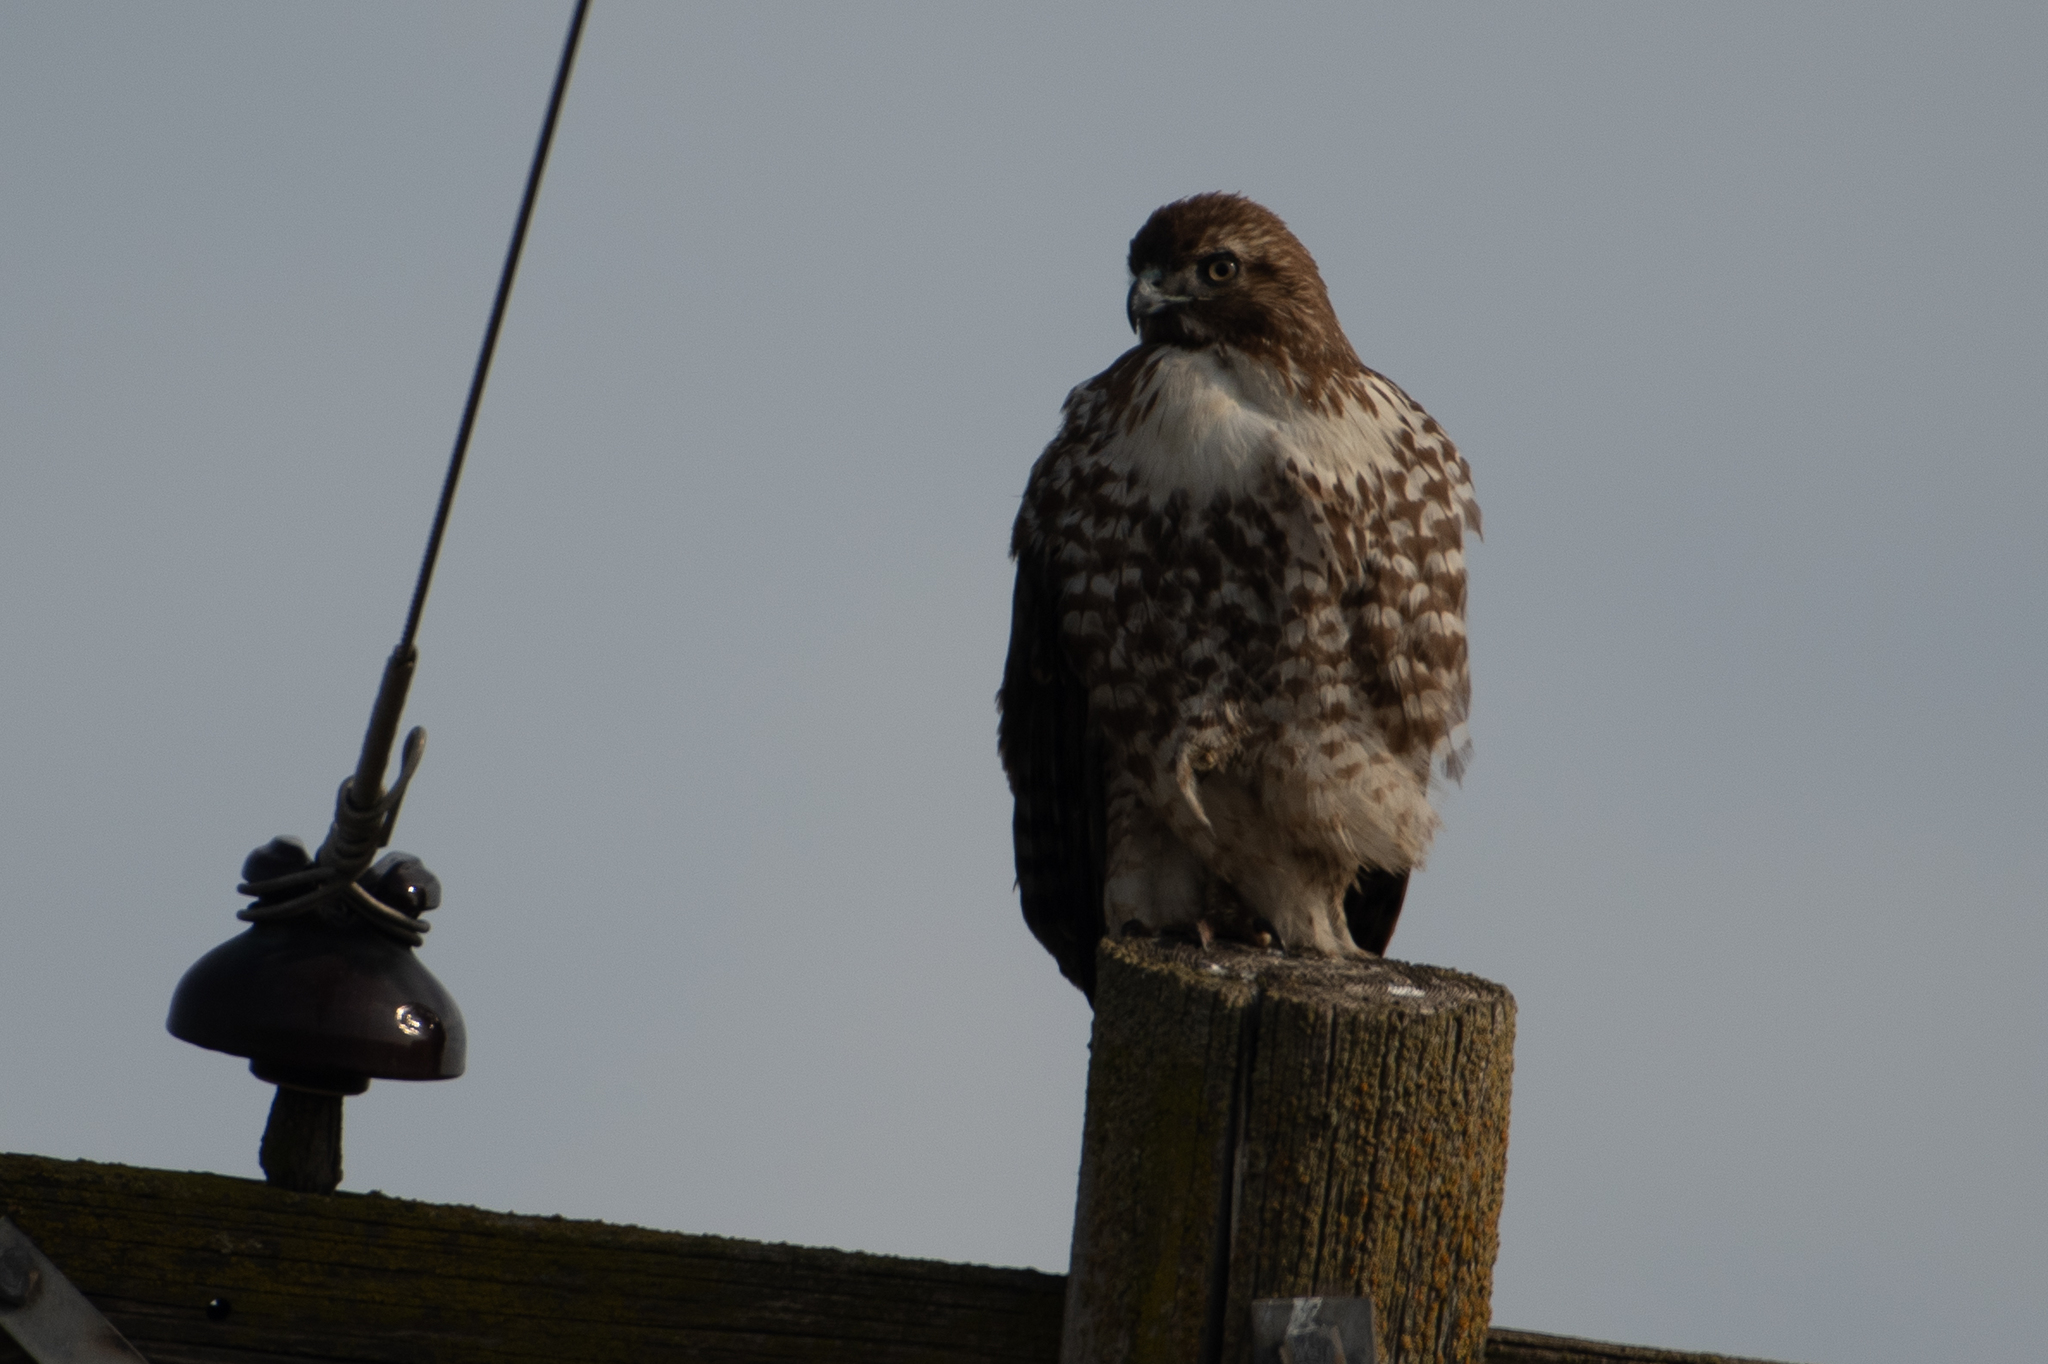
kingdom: Animalia
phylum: Chordata
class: Aves
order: Accipitriformes
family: Accipitridae
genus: Buteo
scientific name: Buteo jamaicensis
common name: Red-tailed hawk
